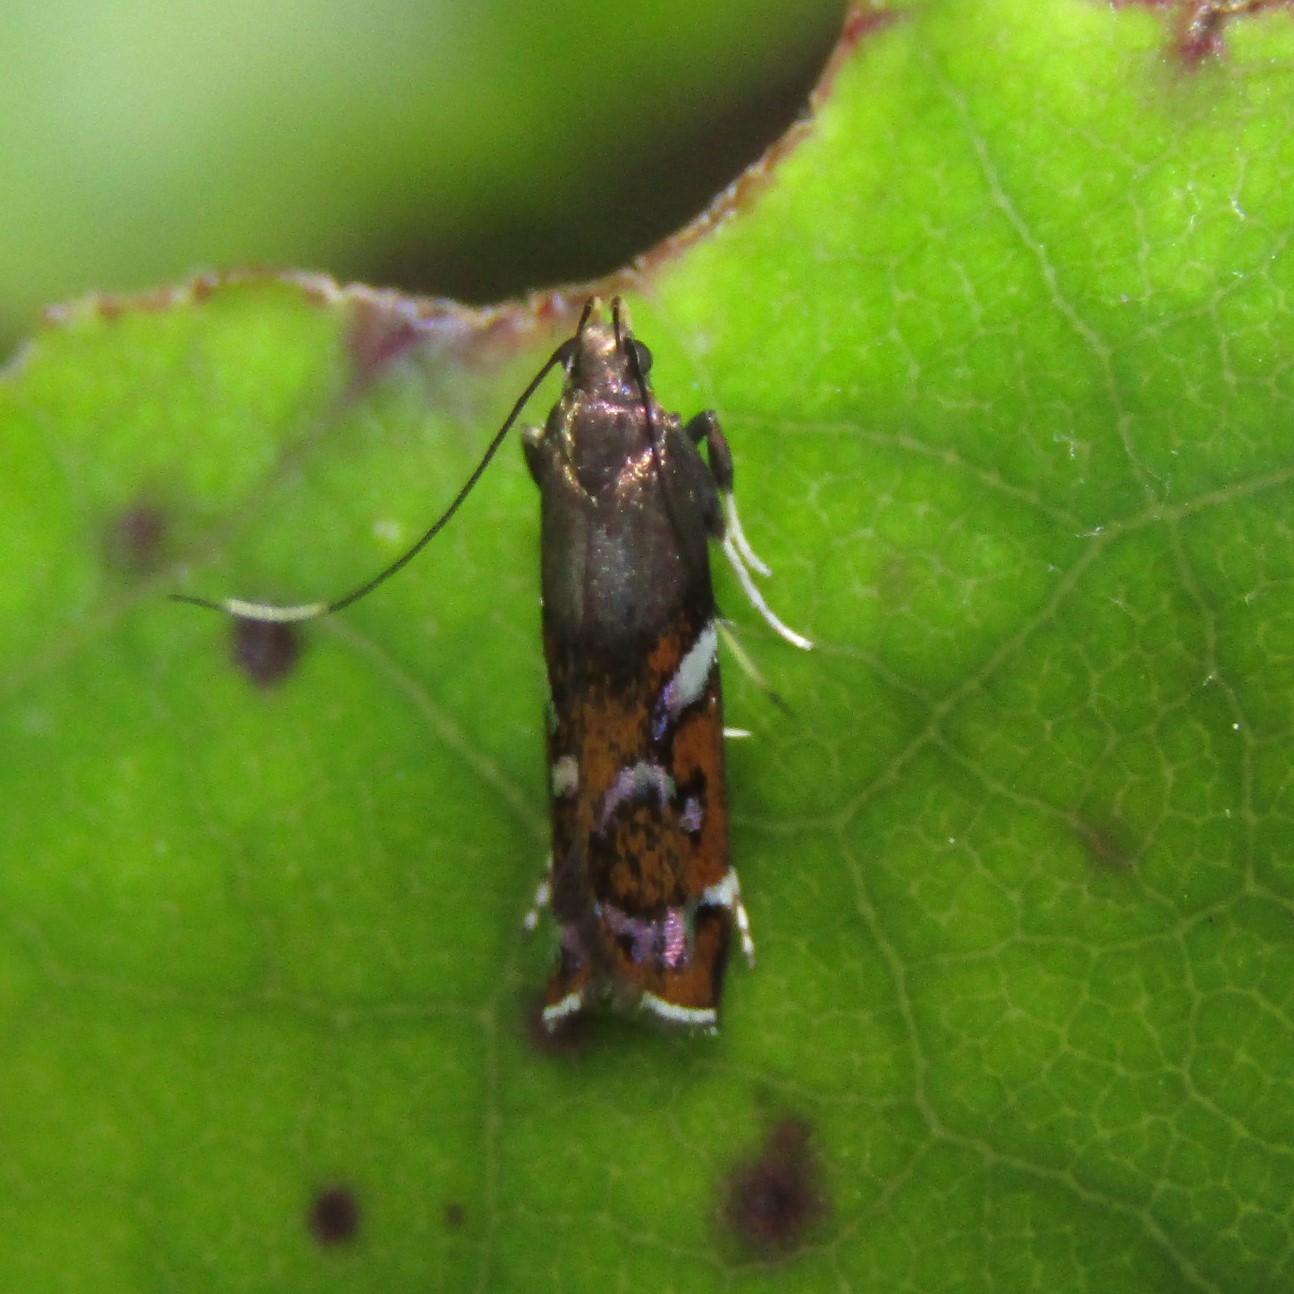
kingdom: Animalia
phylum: Arthropoda
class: Insecta
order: Lepidoptera
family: Depressariidae
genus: Compsistis
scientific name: Compsistis bifaciella
